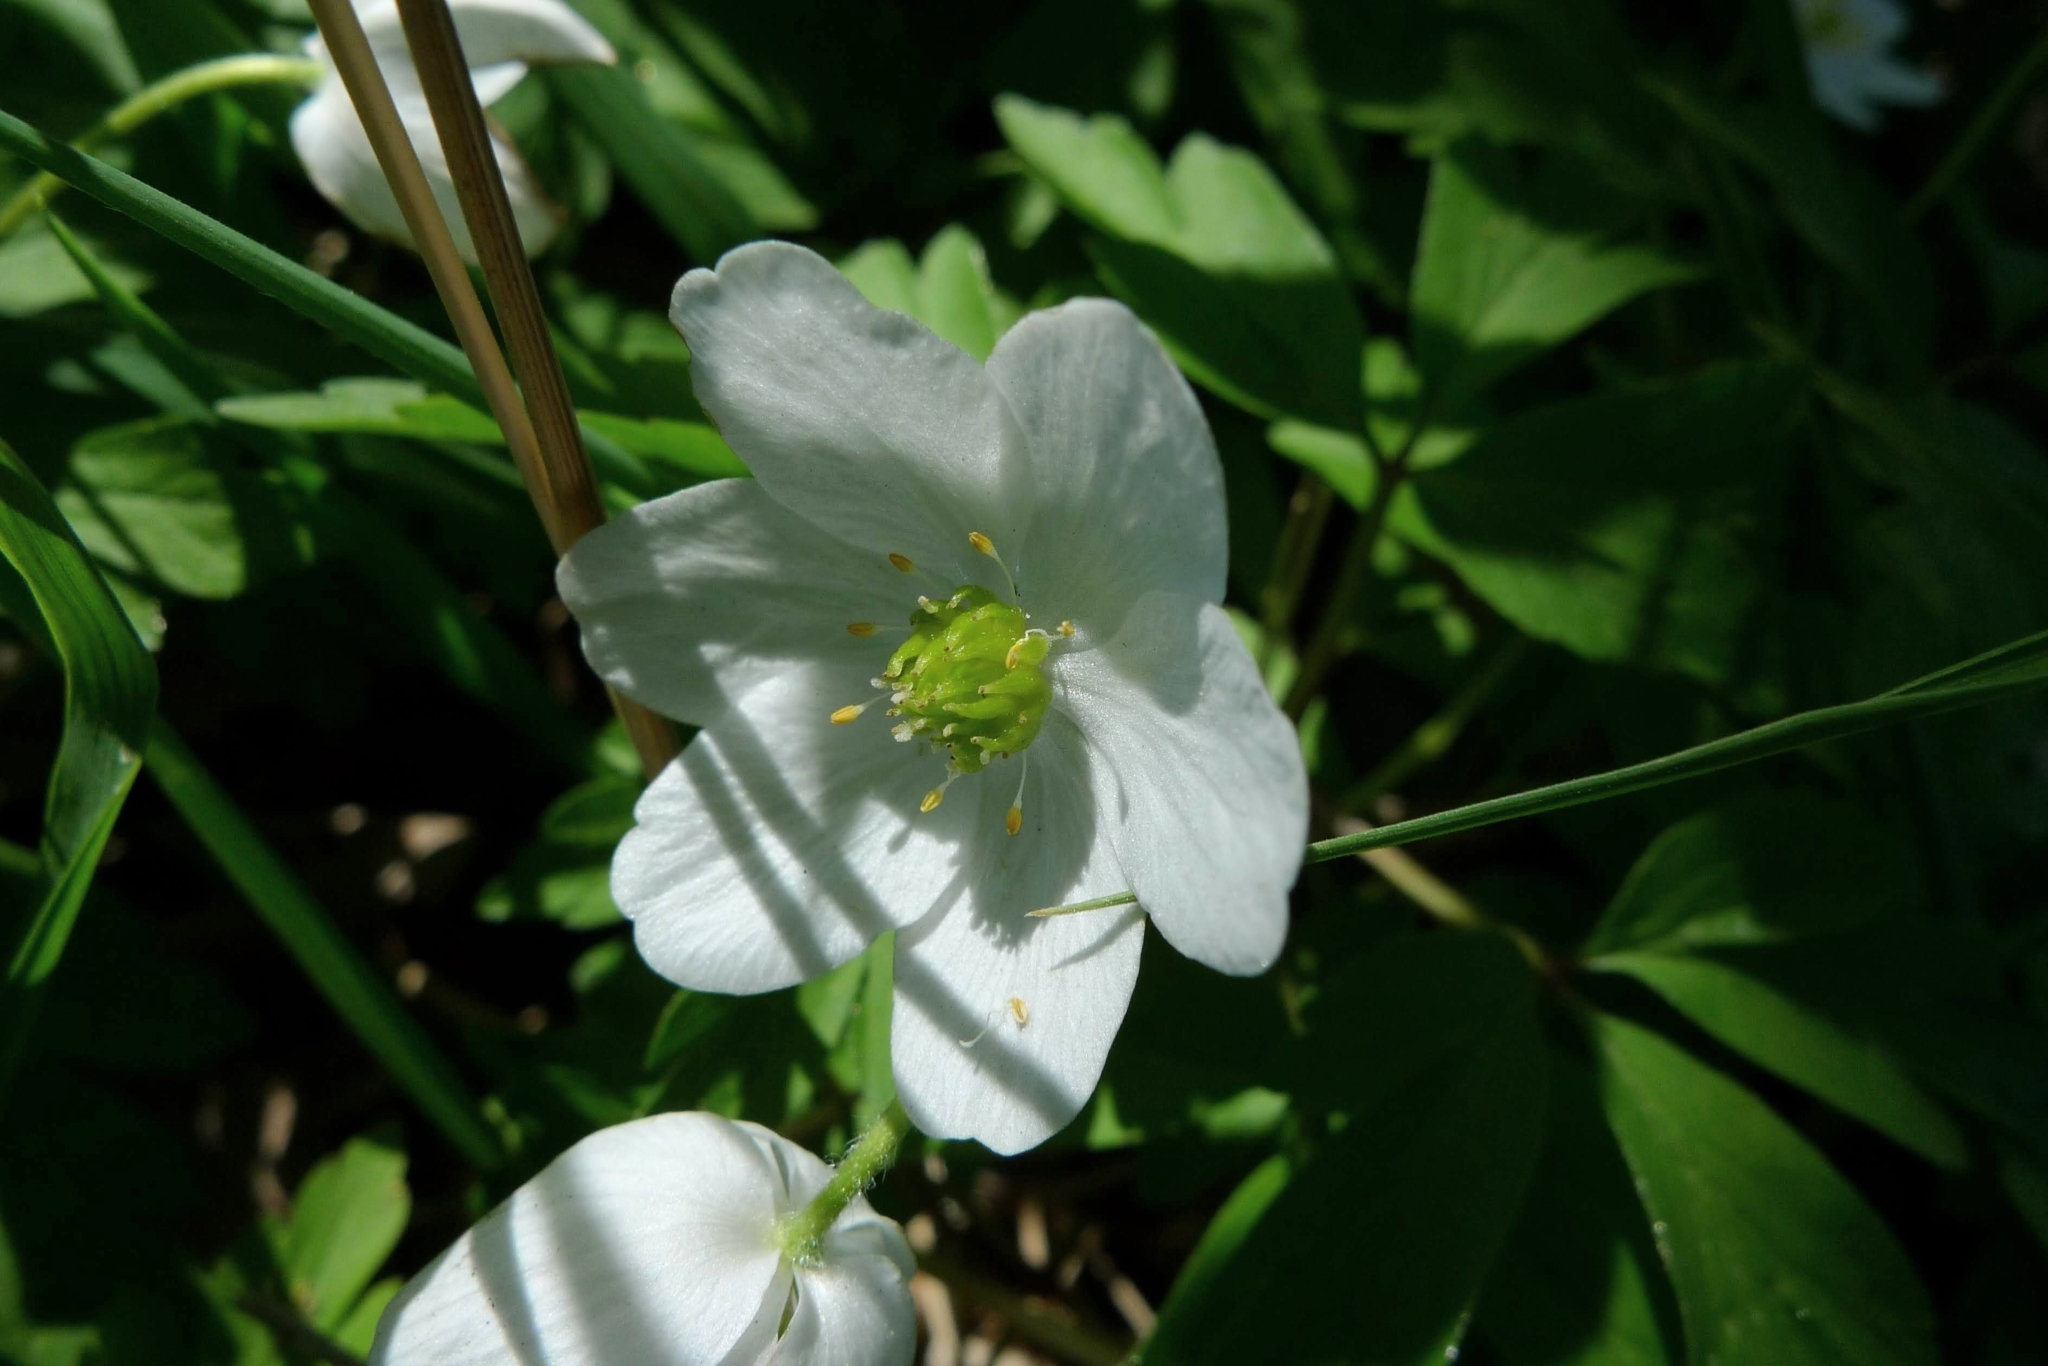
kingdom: Plantae
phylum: Tracheophyta
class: Magnoliopsida
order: Ranunculales
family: Ranunculaceae
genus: Anemone
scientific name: Anemone nemorosa
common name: Wood anemone
